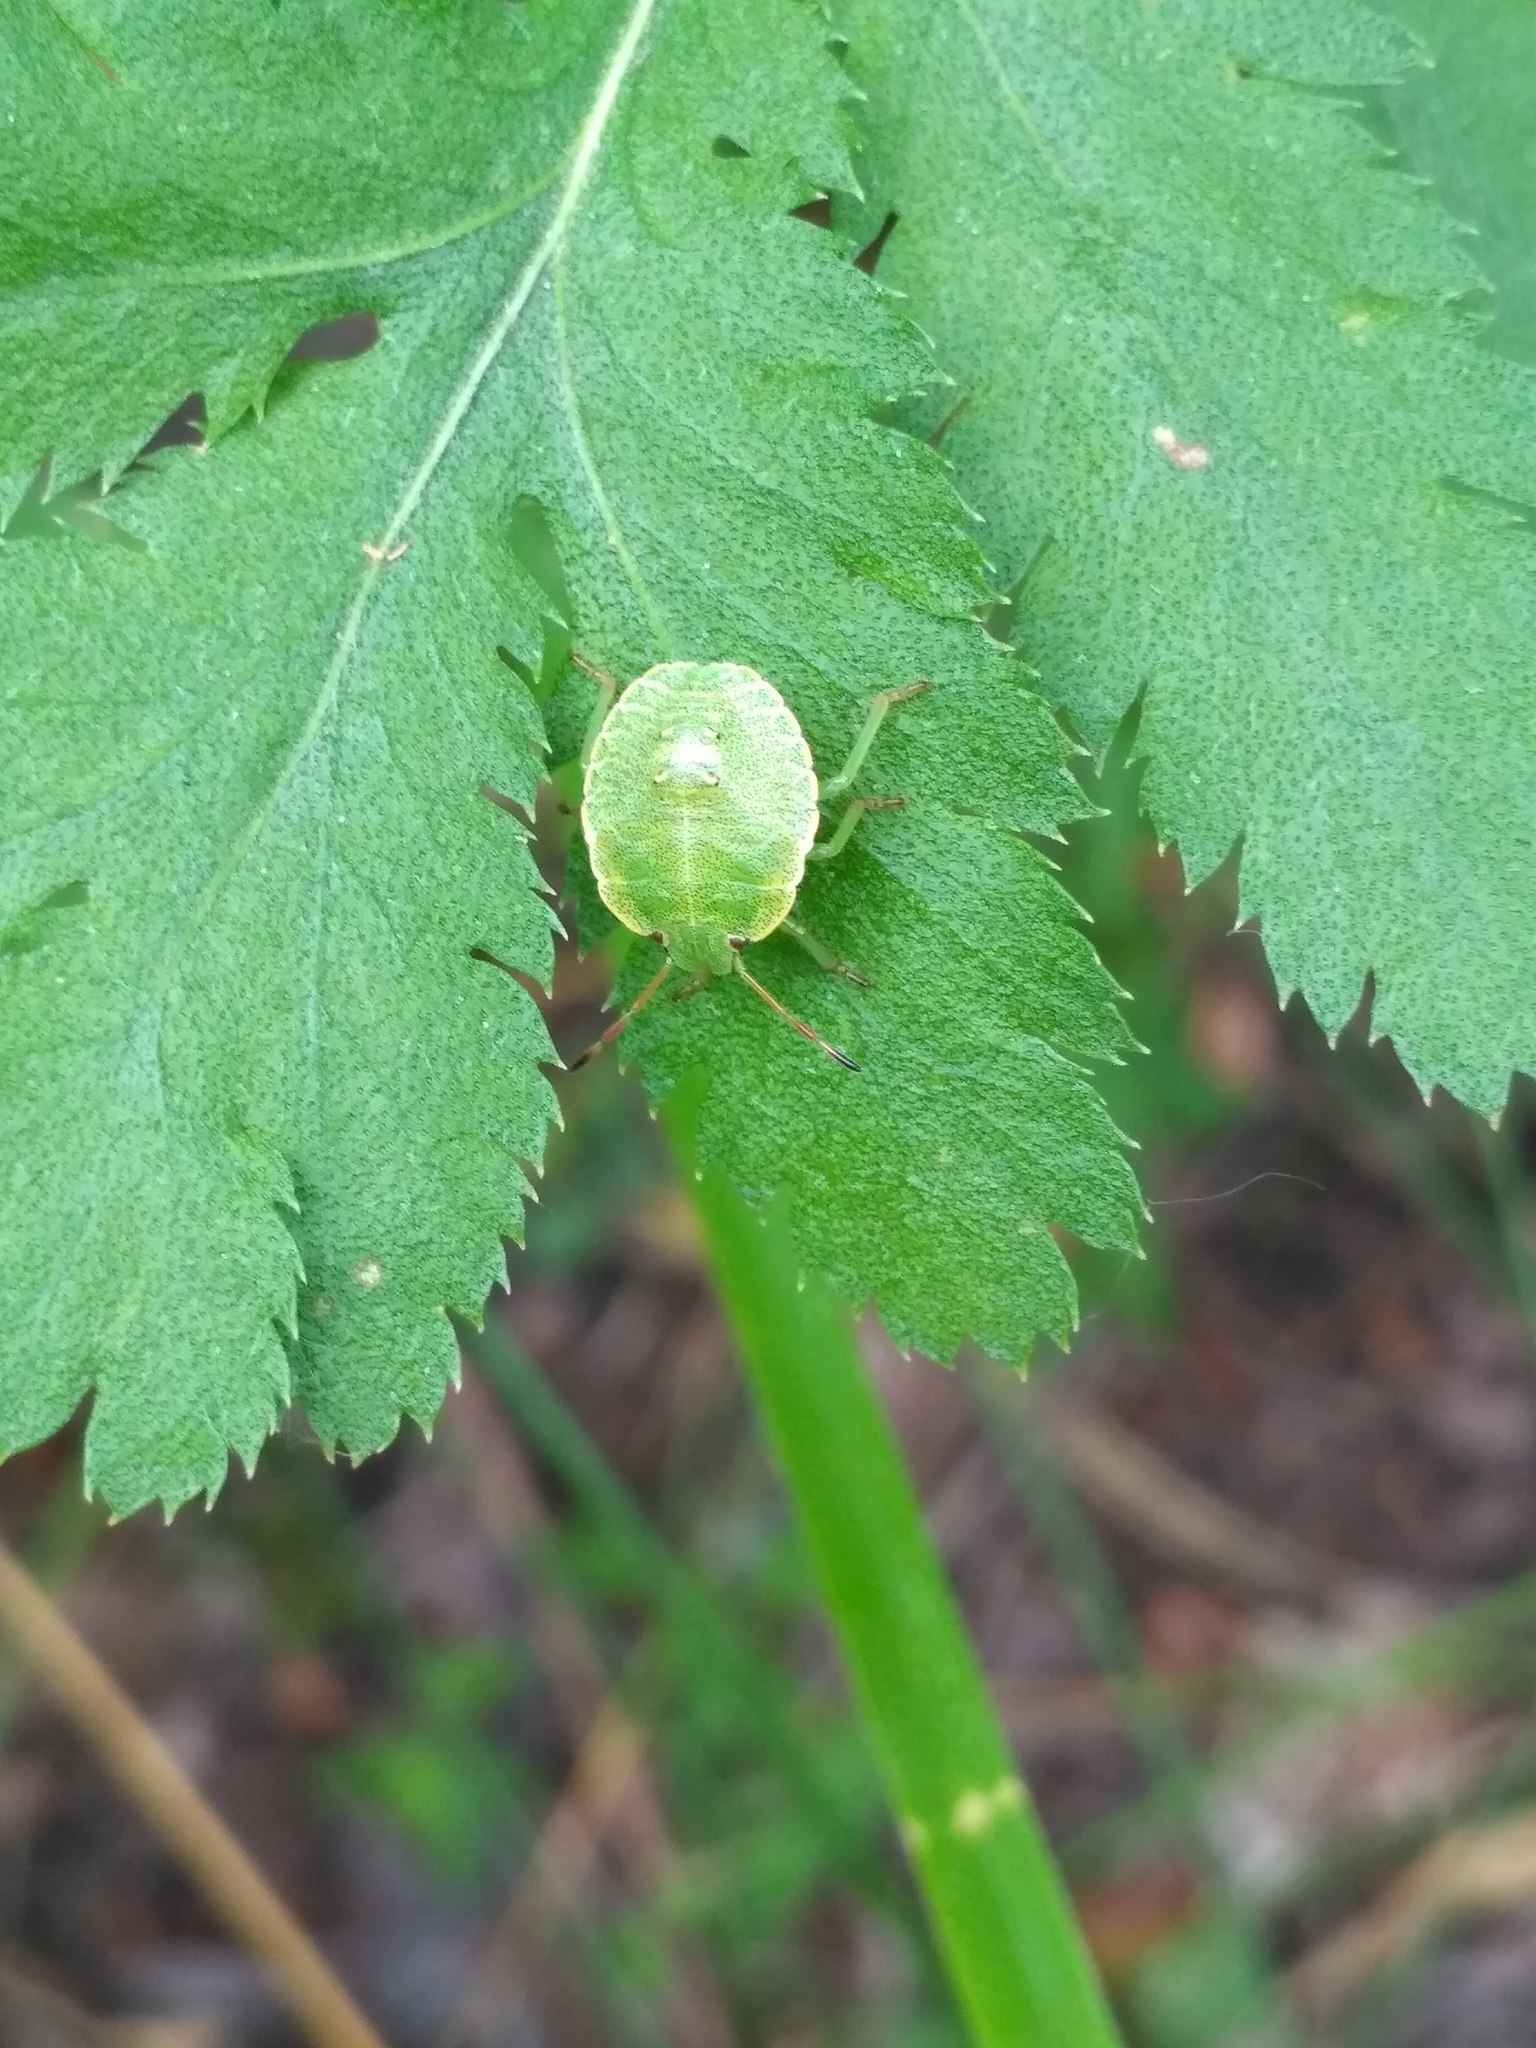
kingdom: Animalia
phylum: Arthropoda
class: Insecta
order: Hemiptera
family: Pentatomidae
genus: Palomena
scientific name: Palomena prasina
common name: Green shieldbug
